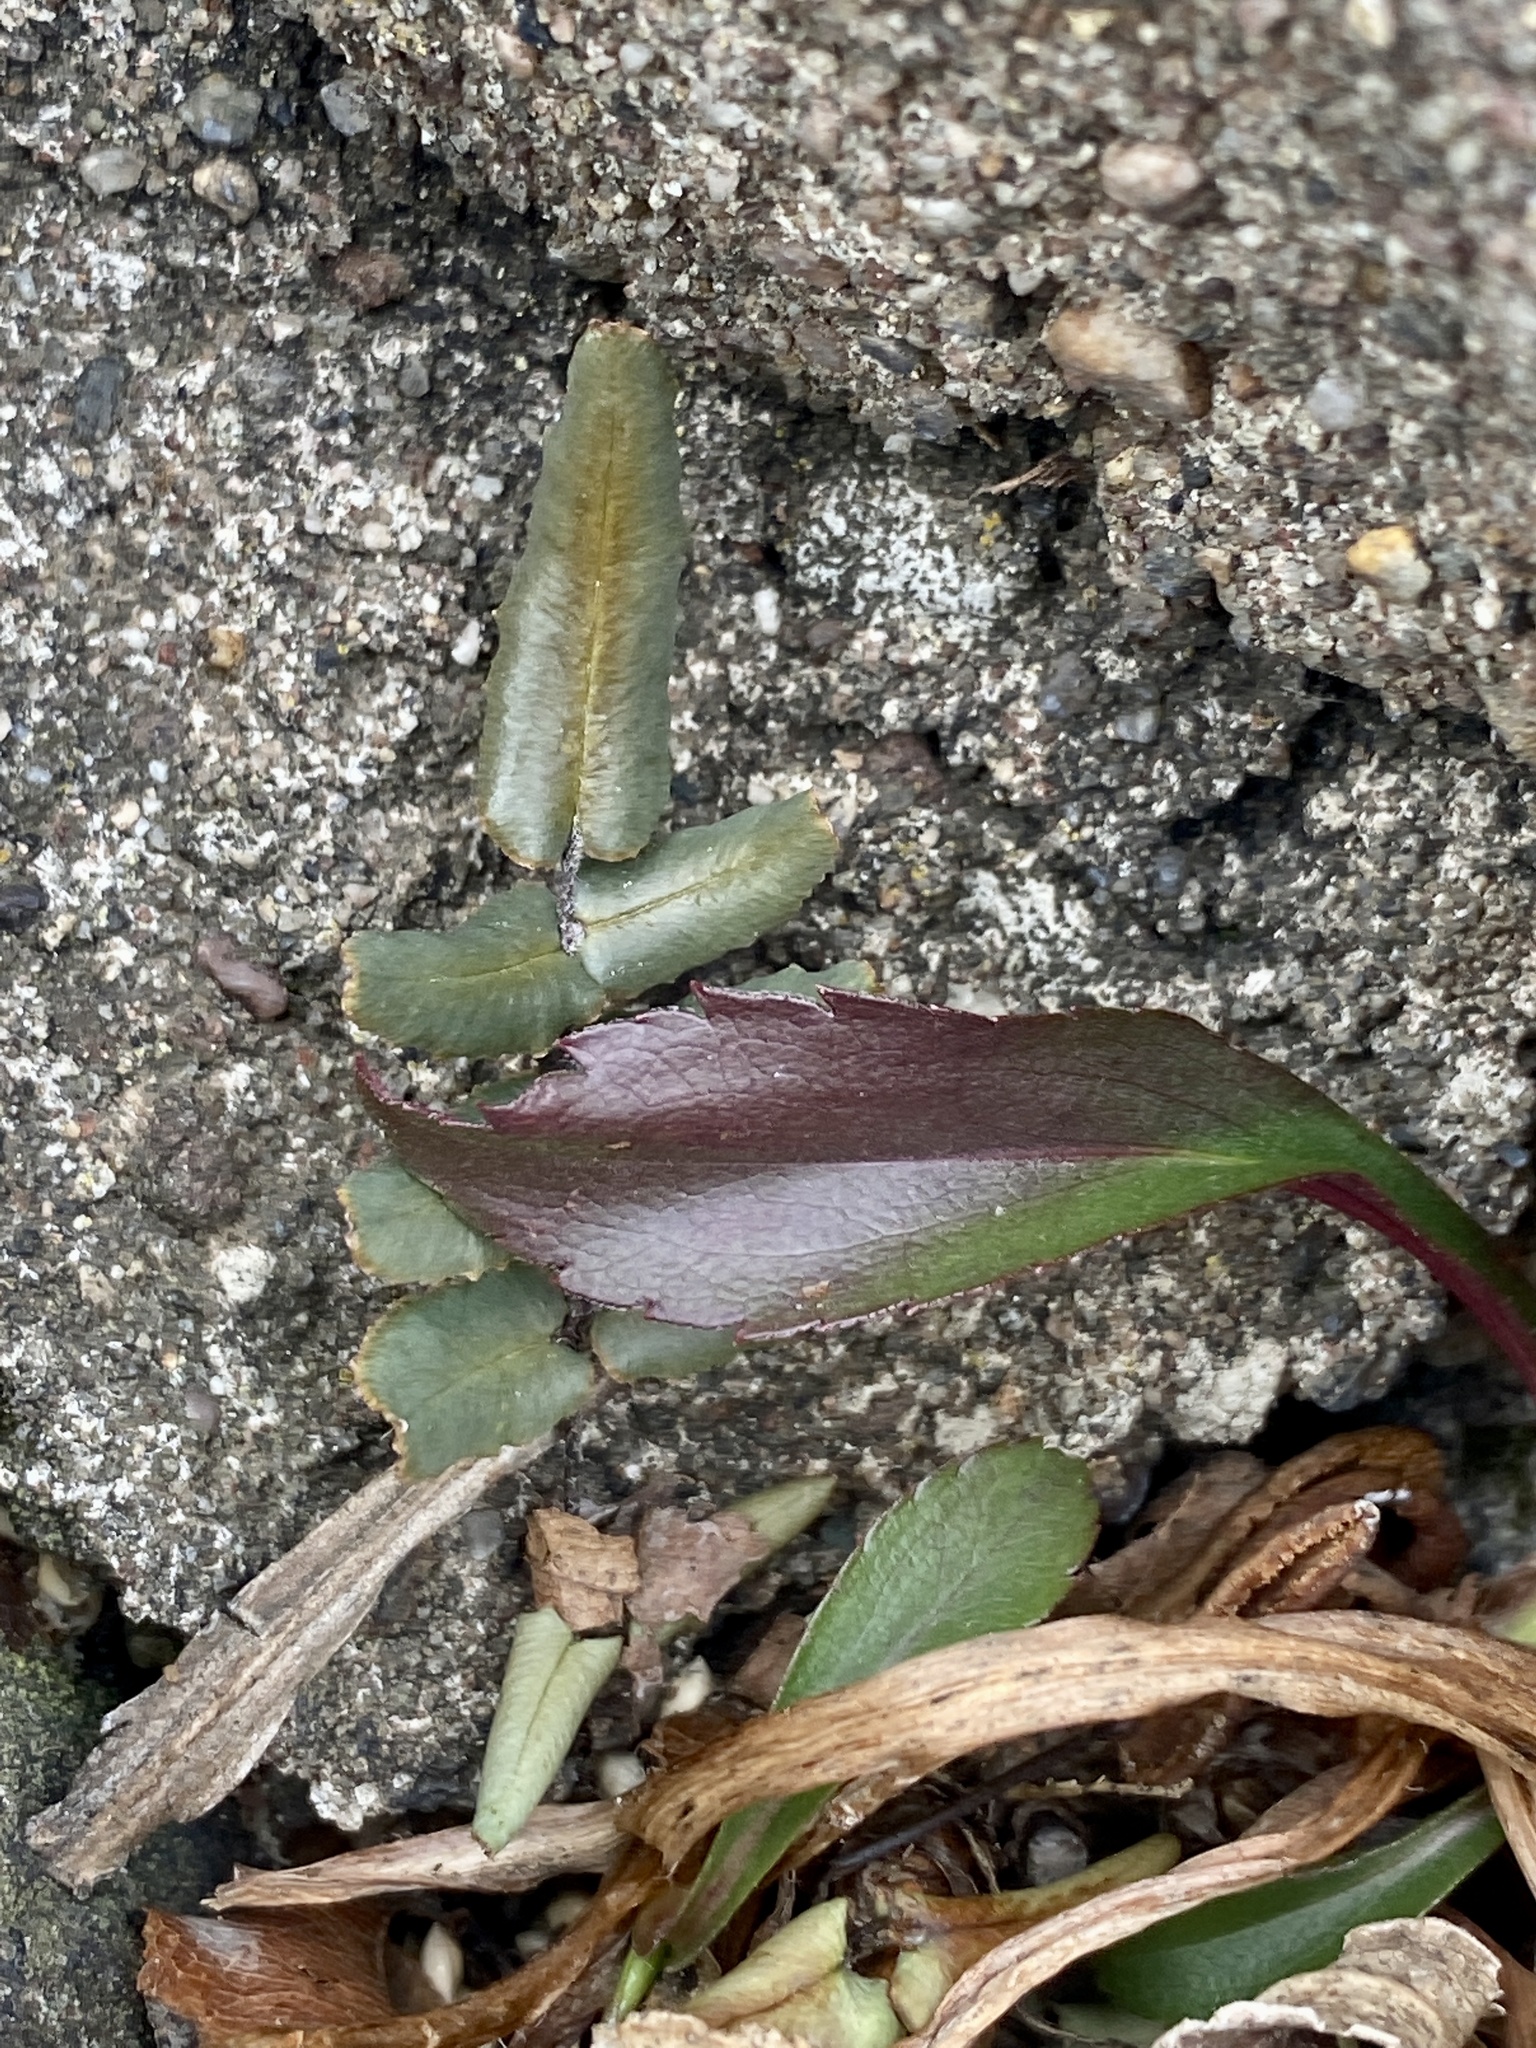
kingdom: Plantae
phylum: Tracheophyta
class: Polypodiopsida
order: Polypodiales
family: Pteridaceae
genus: Pellaea
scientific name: Pellaea atropurpurea
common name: Hairy cliffbrake
